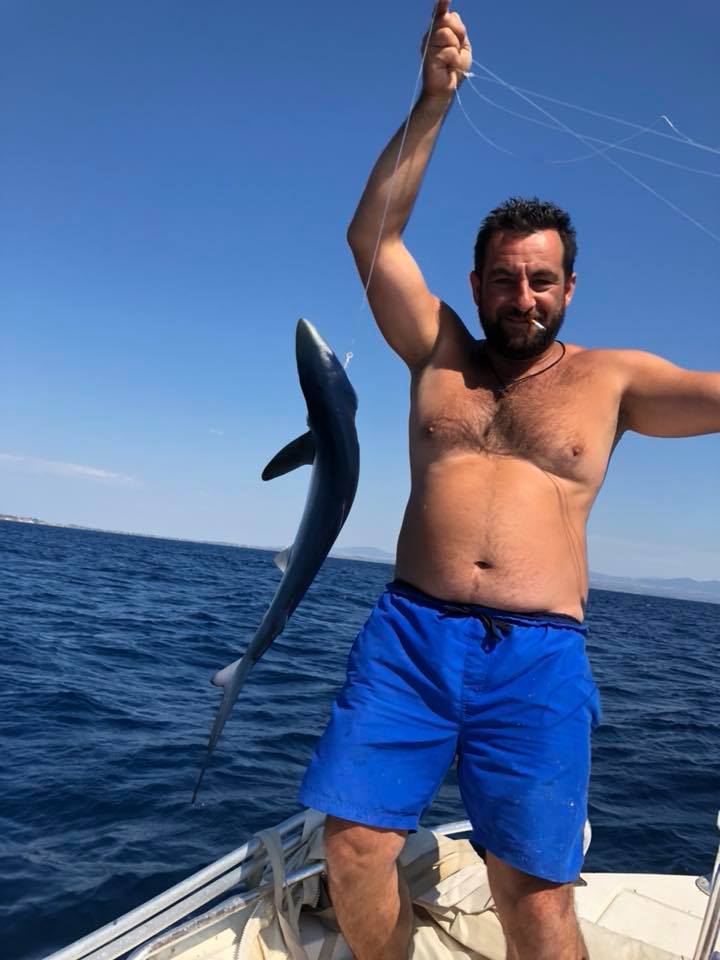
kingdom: Animalia
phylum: Chordata
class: Elasmobranchii
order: Carcharhiniformes
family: Carcharhinidae
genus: Prionace
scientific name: Prionace glauca
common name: Blue shark
